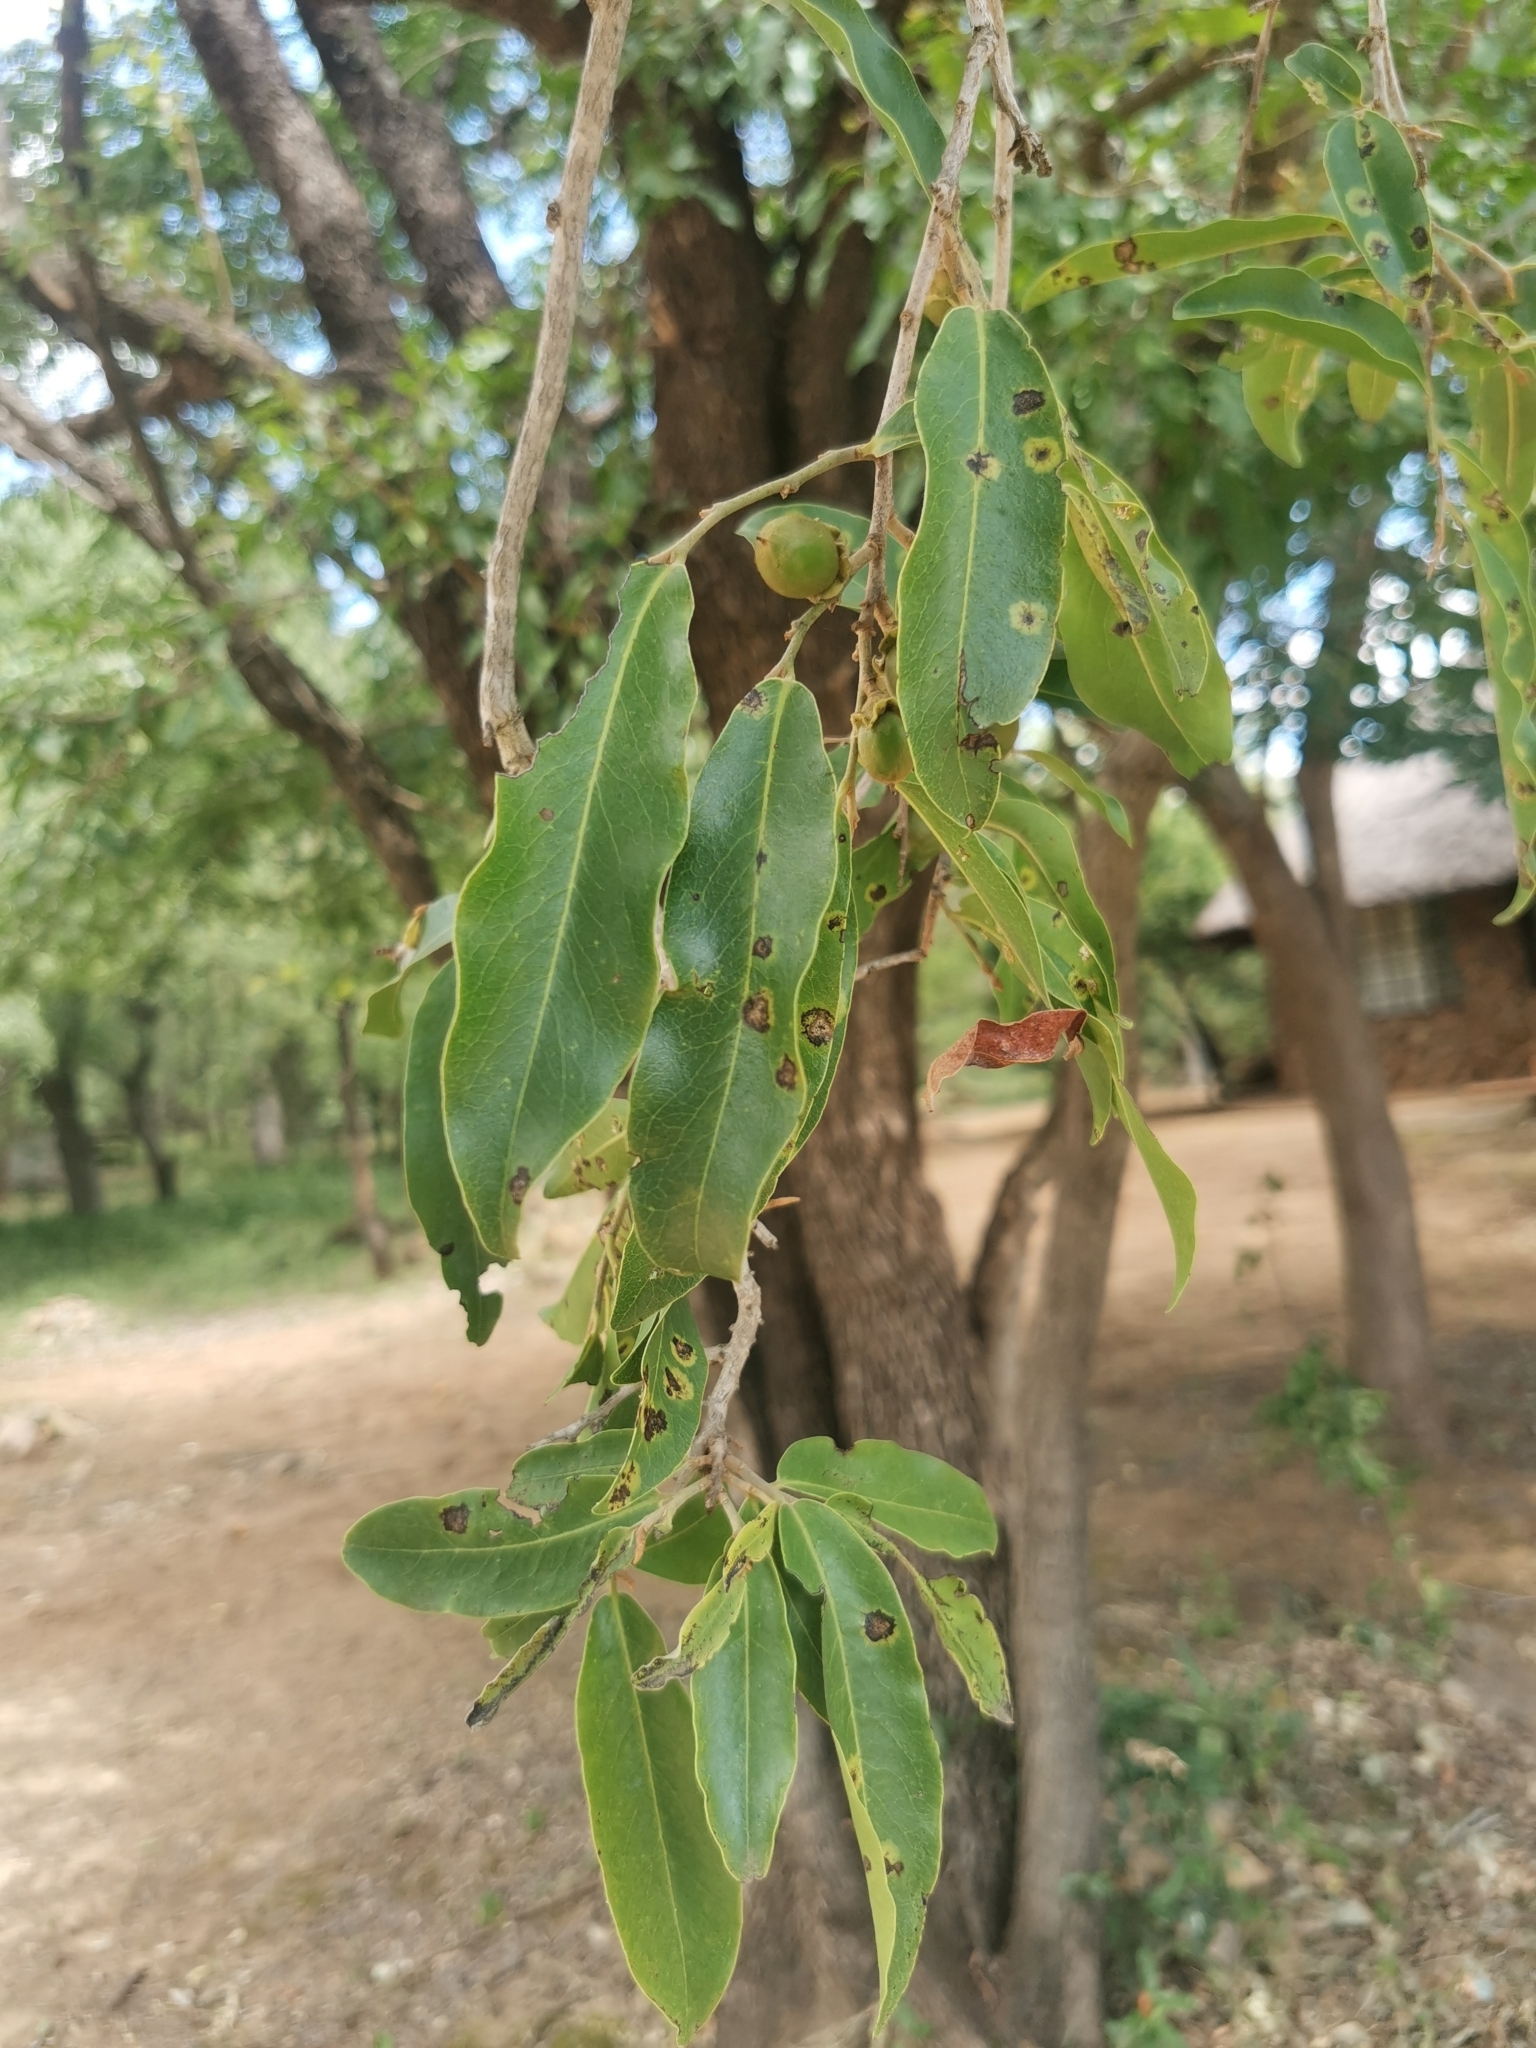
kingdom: Plantae
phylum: Tracheophyta
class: Magnoliopsida
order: Ericales
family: Ebenaceae
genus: Diospyros
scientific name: Diospyros mespiliformis
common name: Ebony diospyros
